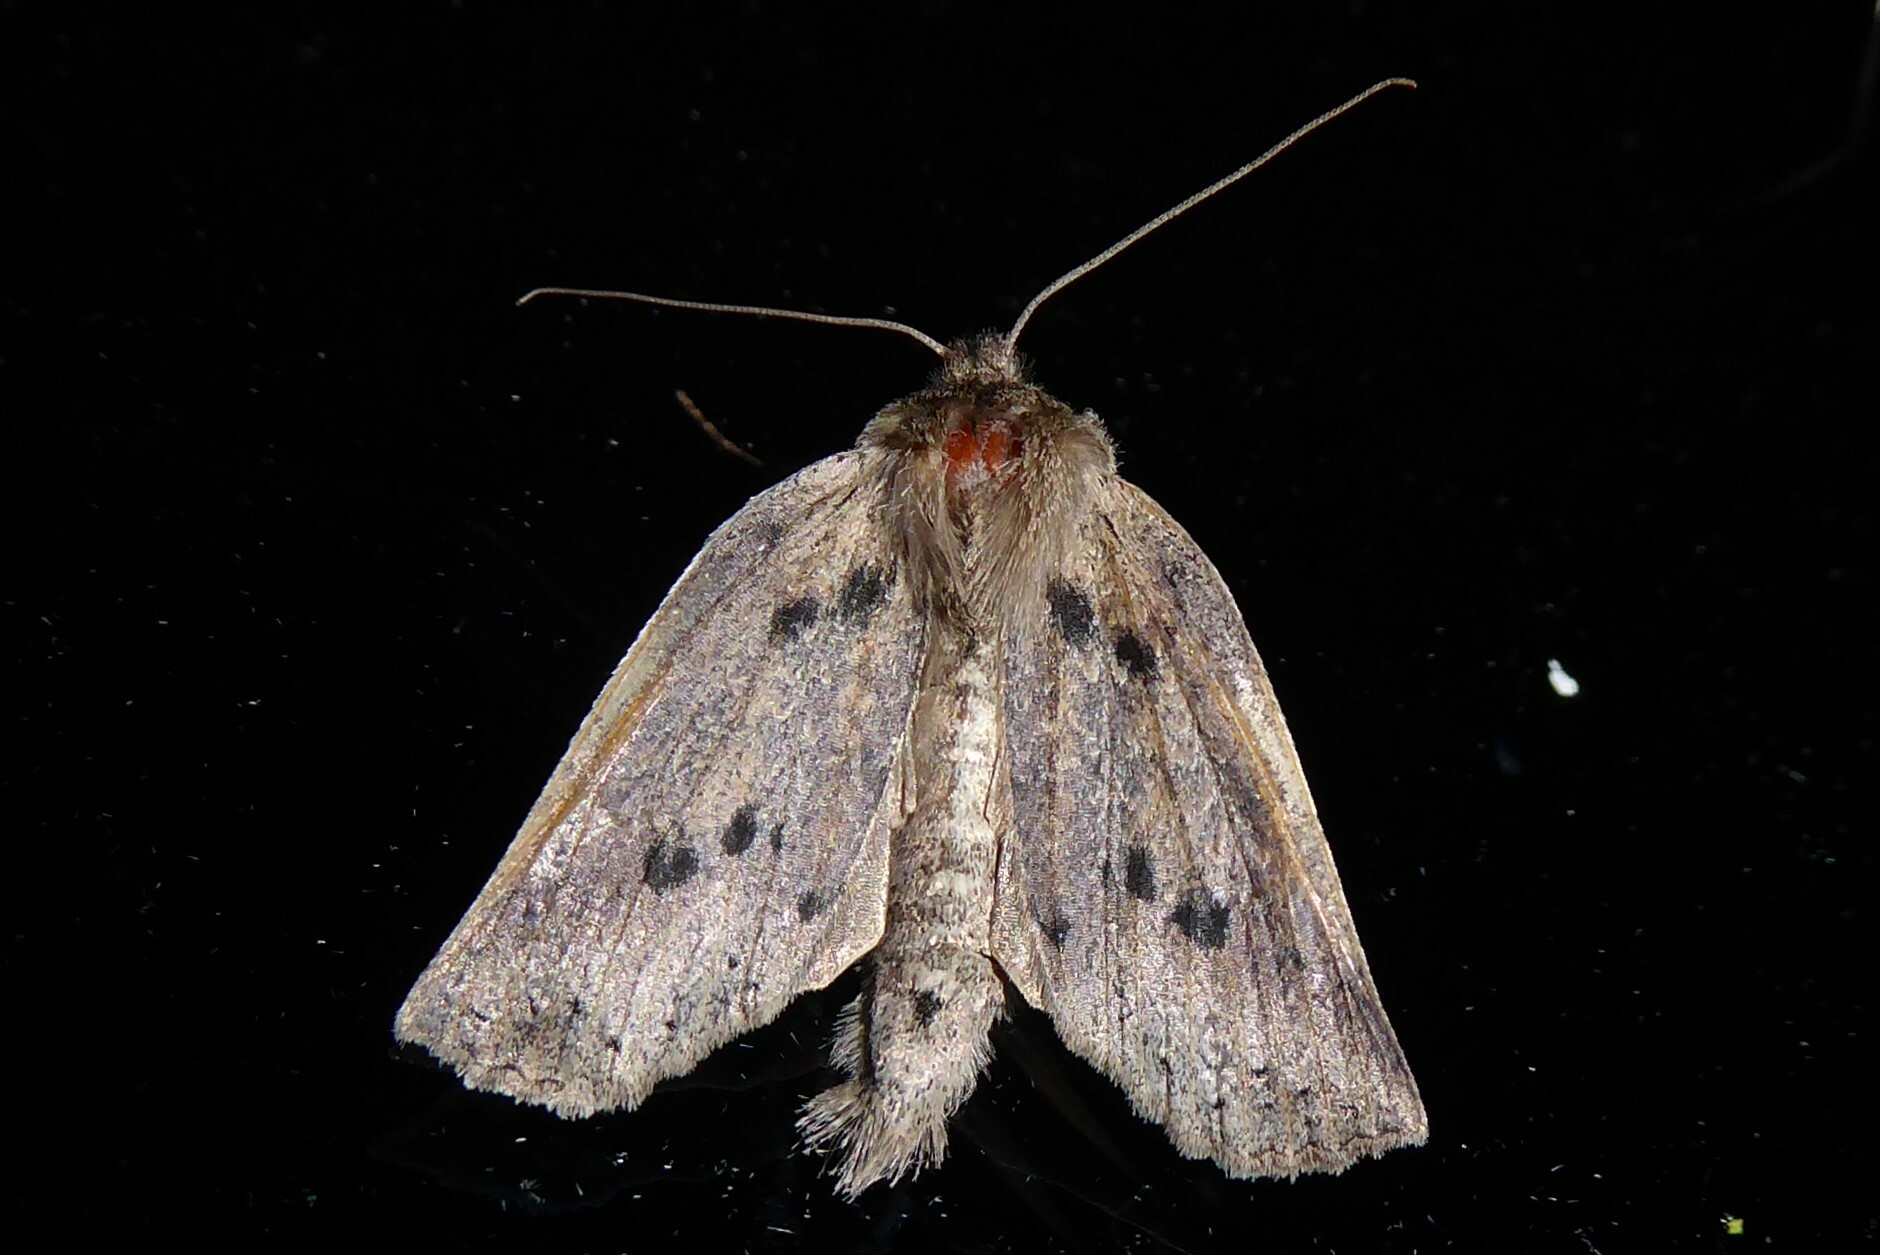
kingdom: Animalia
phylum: Arthropoda
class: Insecta
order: Lepidoptera
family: Geometridae
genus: Declana
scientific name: Declana leptomera
